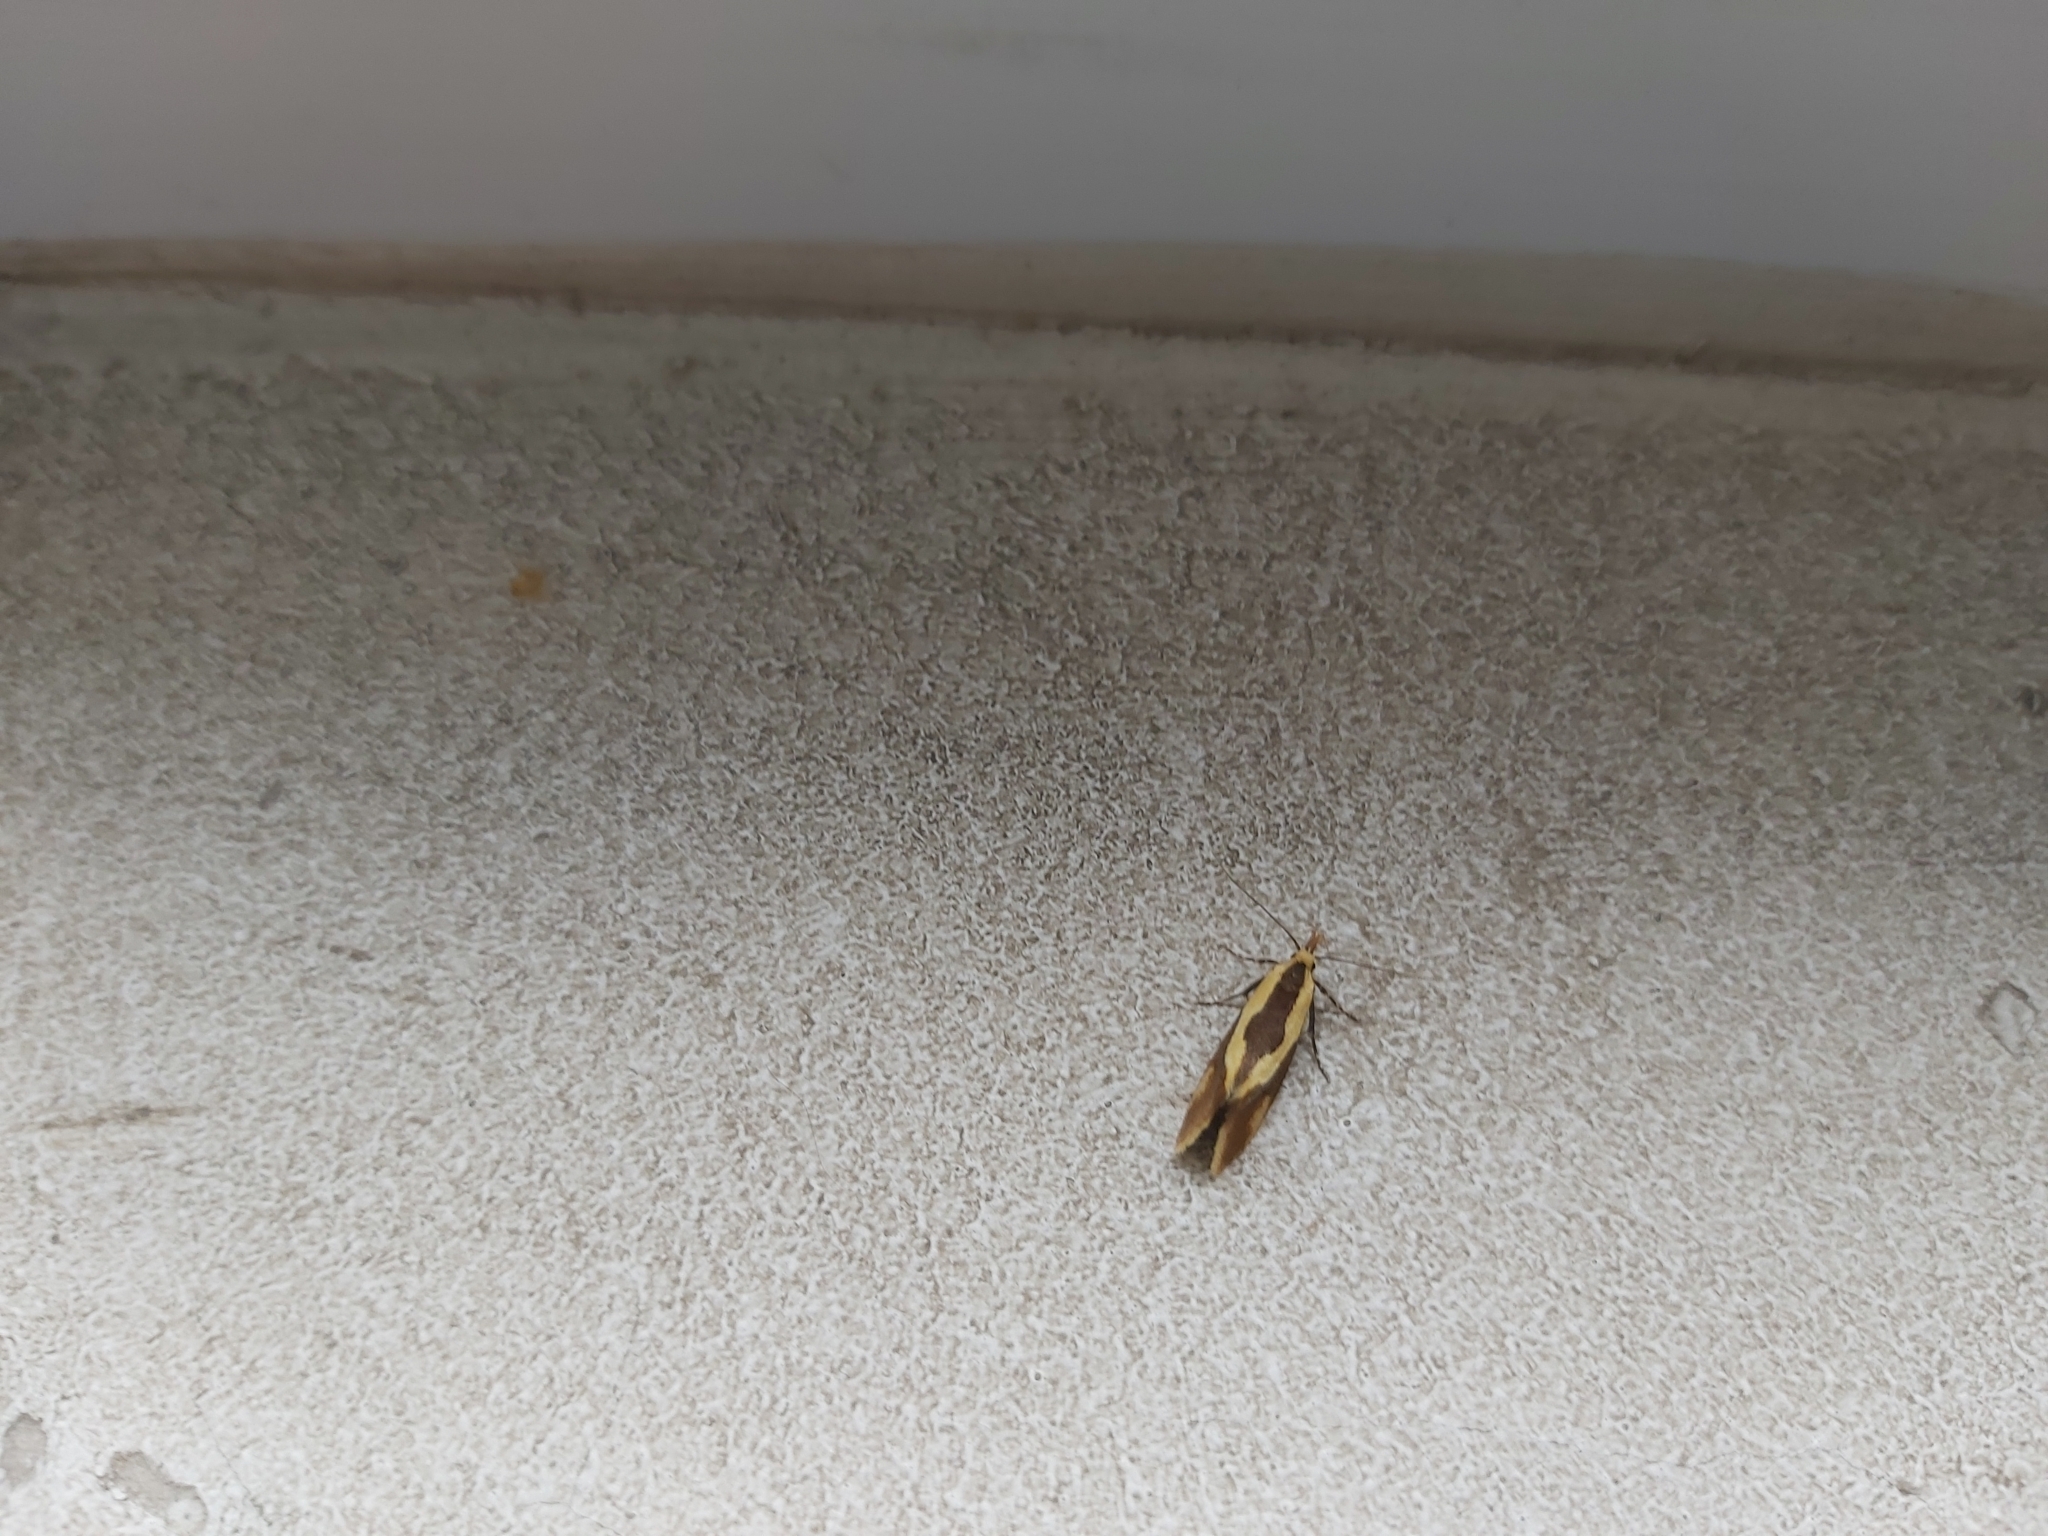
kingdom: Animalia
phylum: Arthropoda
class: Insecta
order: Lepidoptera
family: Oecophoridae
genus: Harpella
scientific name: Harpella forficella
